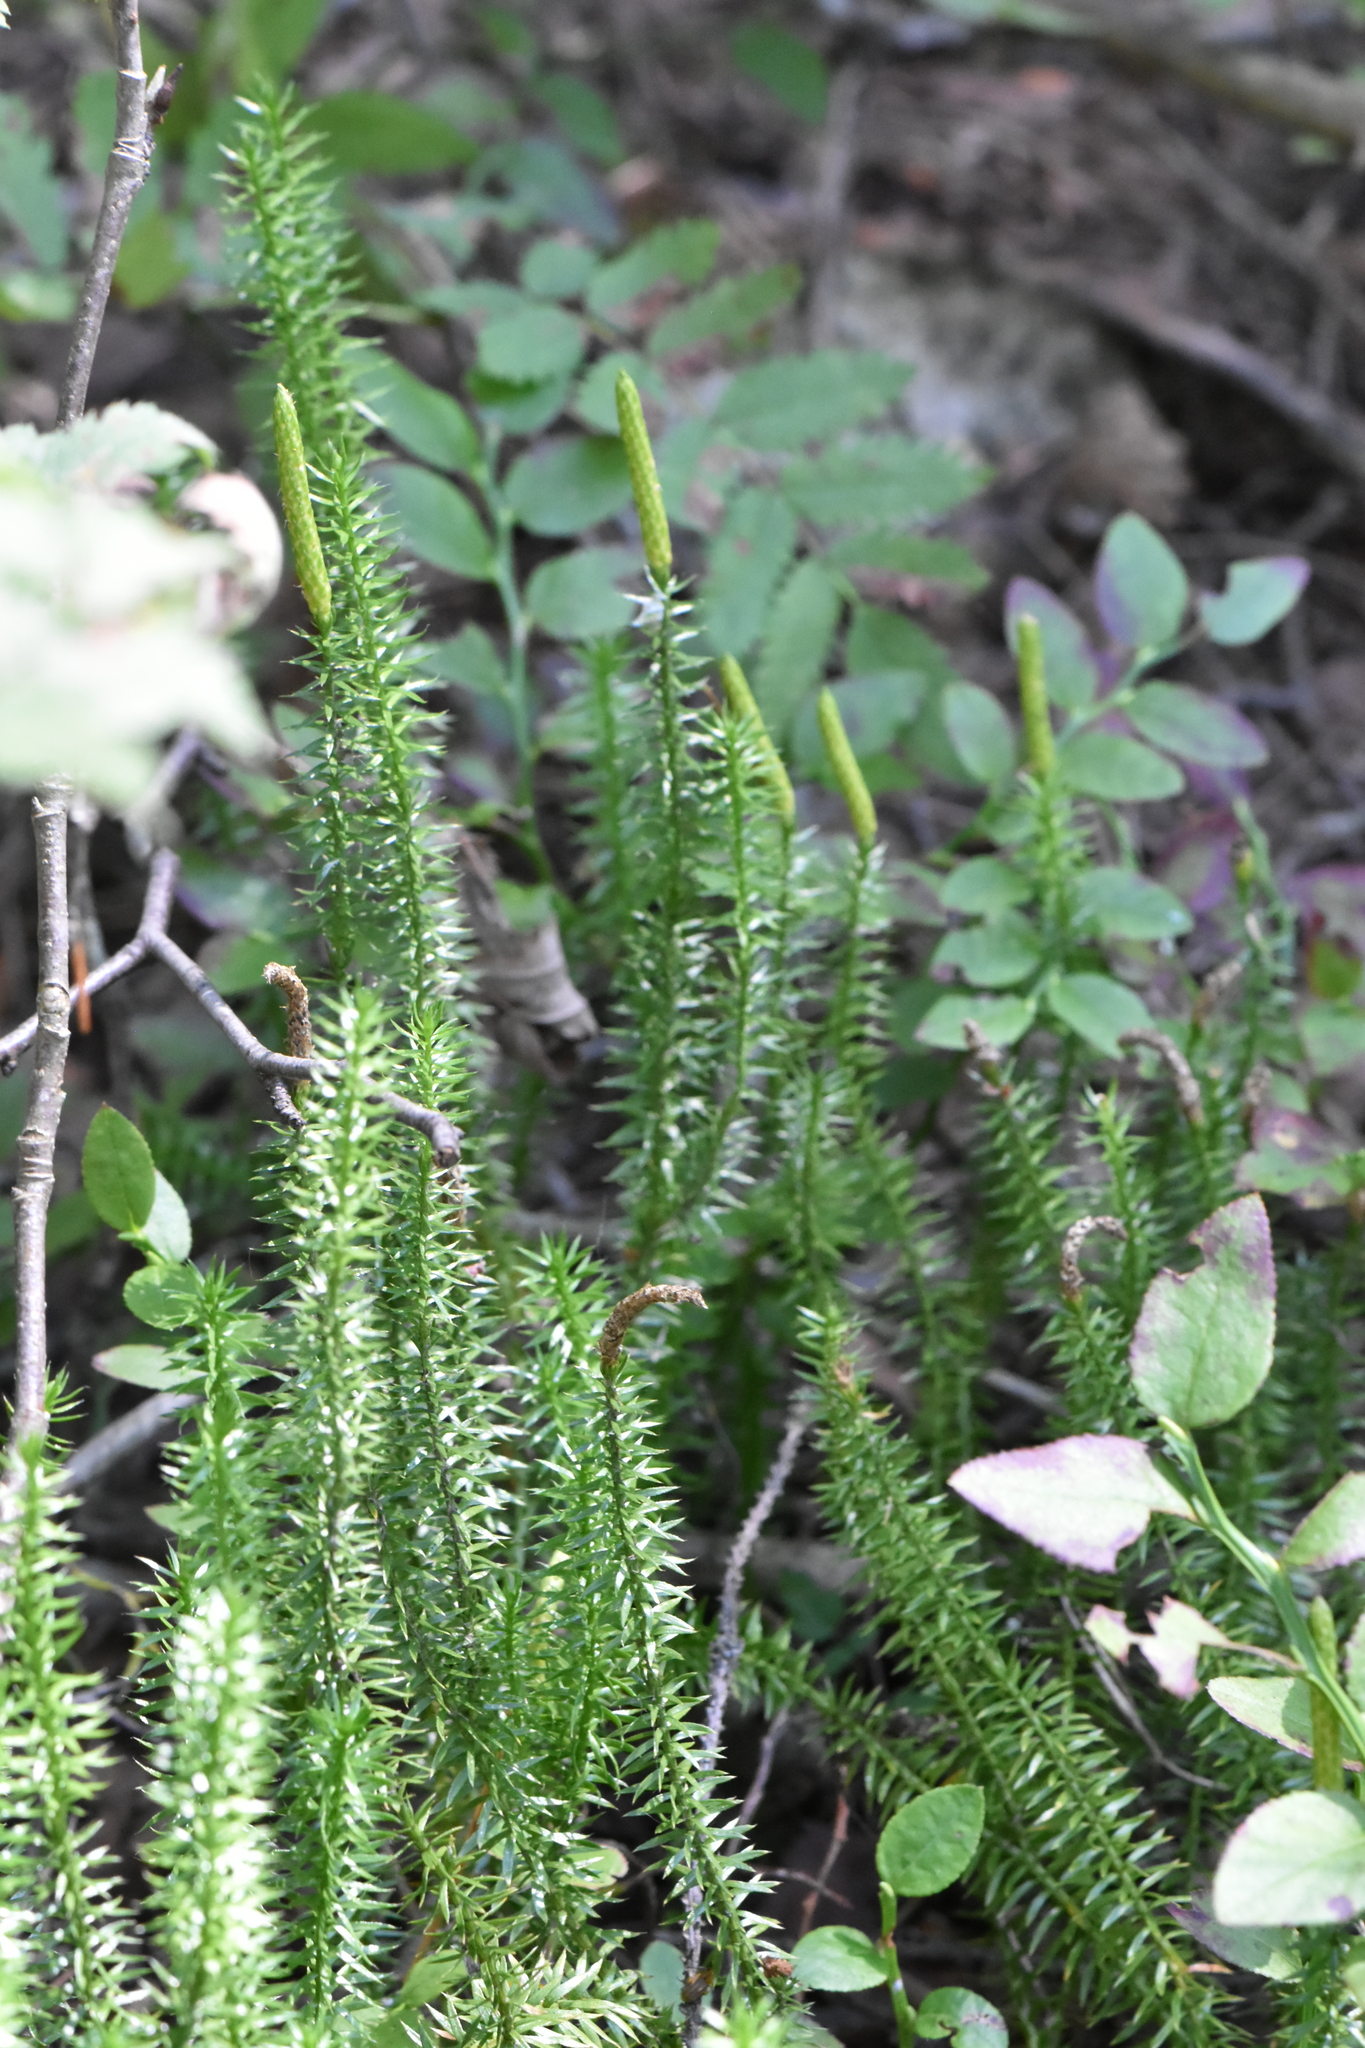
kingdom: Plantae
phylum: Tracheophyta
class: Lycopodiopsida
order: Lycopodiales
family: Lycopodiaceae
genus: Spinulum
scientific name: Spinulum annotinum
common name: Interrupted club-moss
